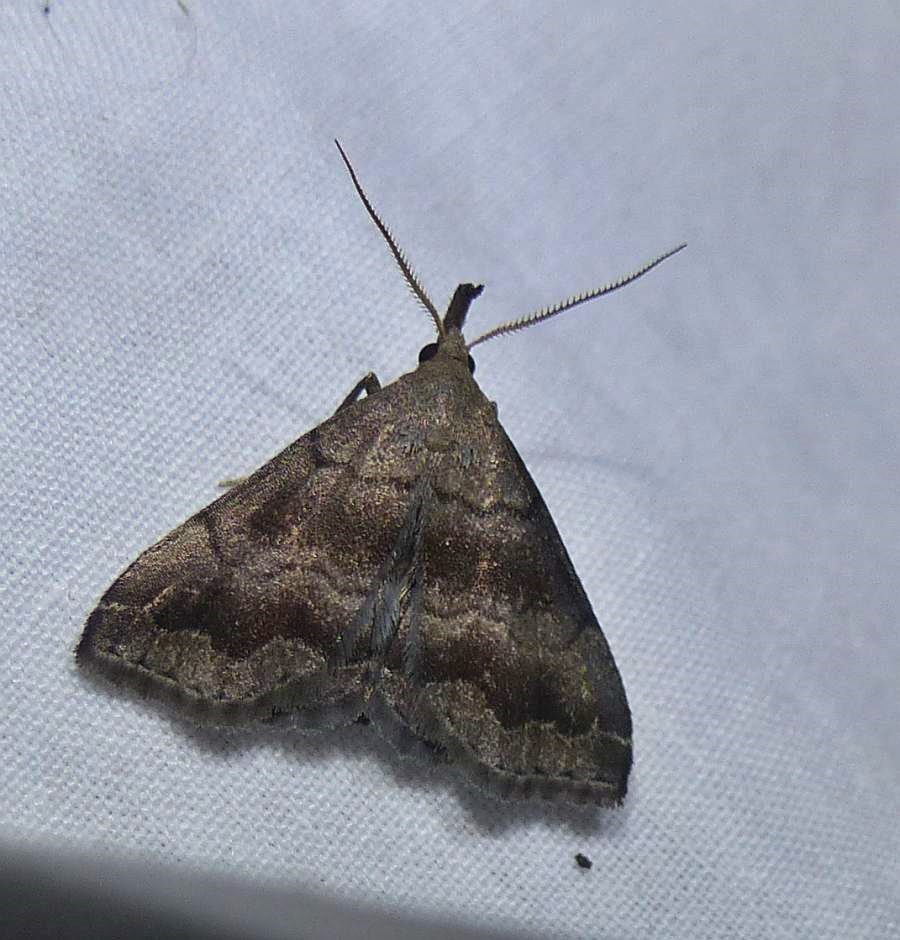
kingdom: Animalia
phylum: Arthropoda
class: Insecta
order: Lepidoptera
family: Erebidae
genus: Phalaenostola
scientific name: Phalaenostola larentioides
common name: Black-banded owlet
